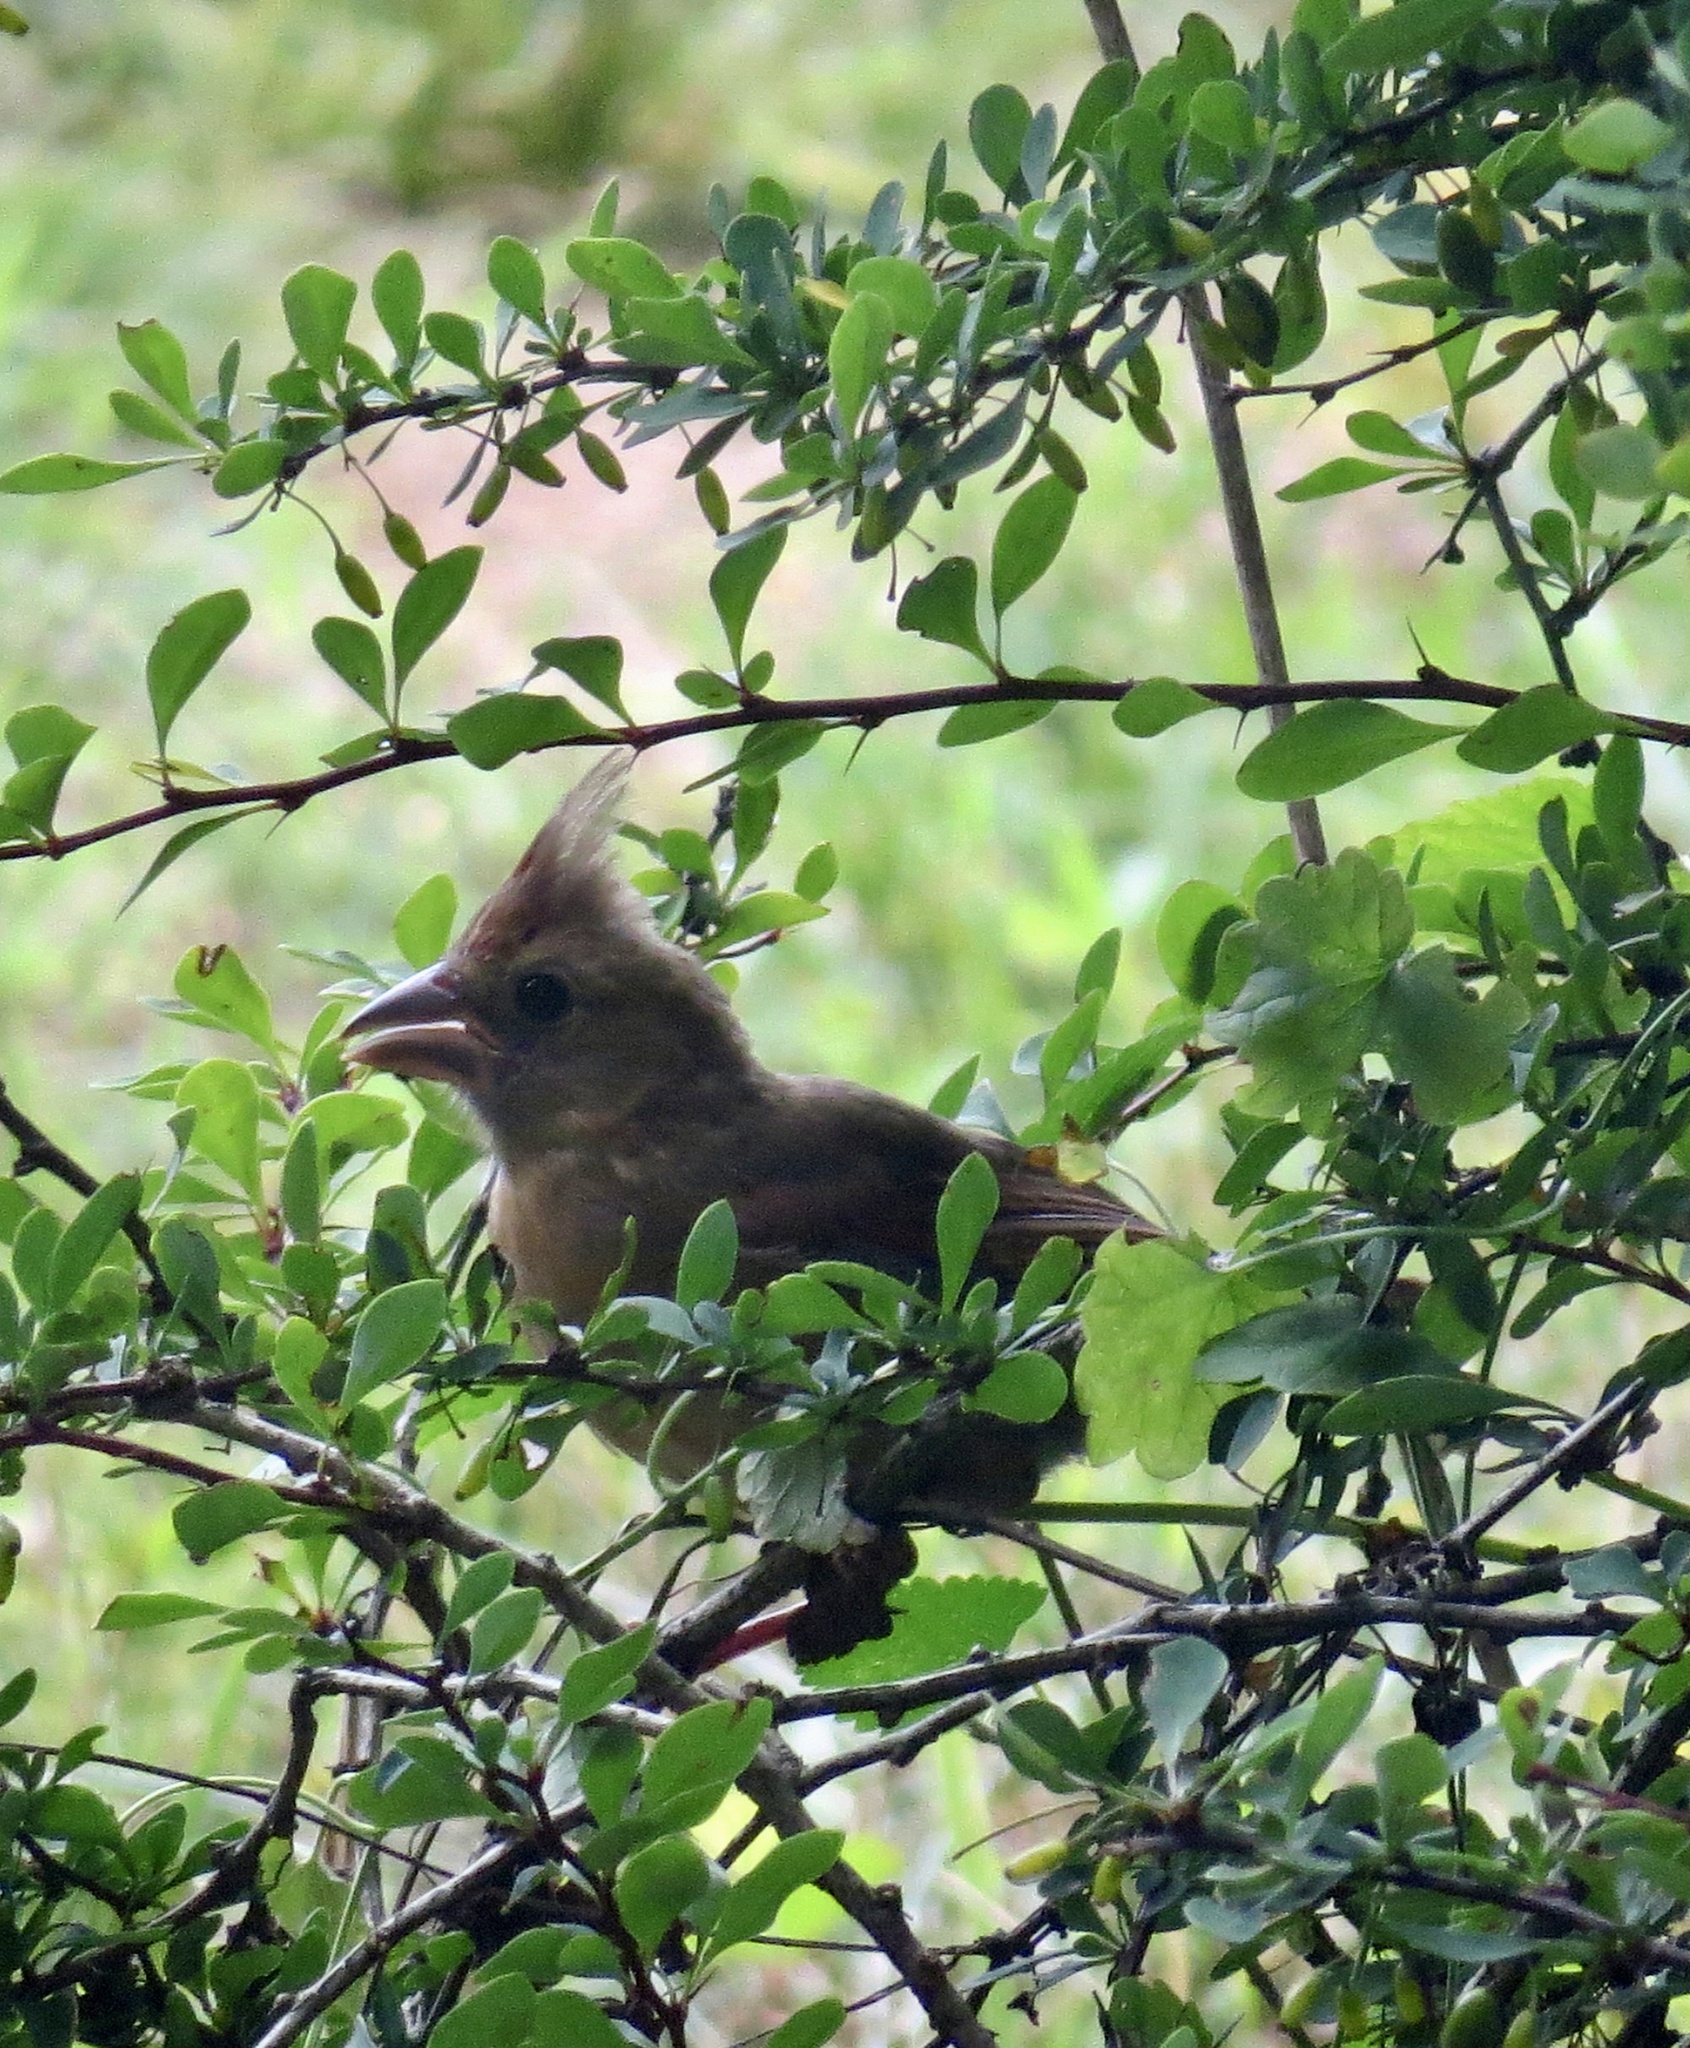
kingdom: Animalia
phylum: Chordata
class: Aves
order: Passeriformes
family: Cardinalidae
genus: Cardinalis
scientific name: Cardinalis cardinalis
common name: Northern cardinal
